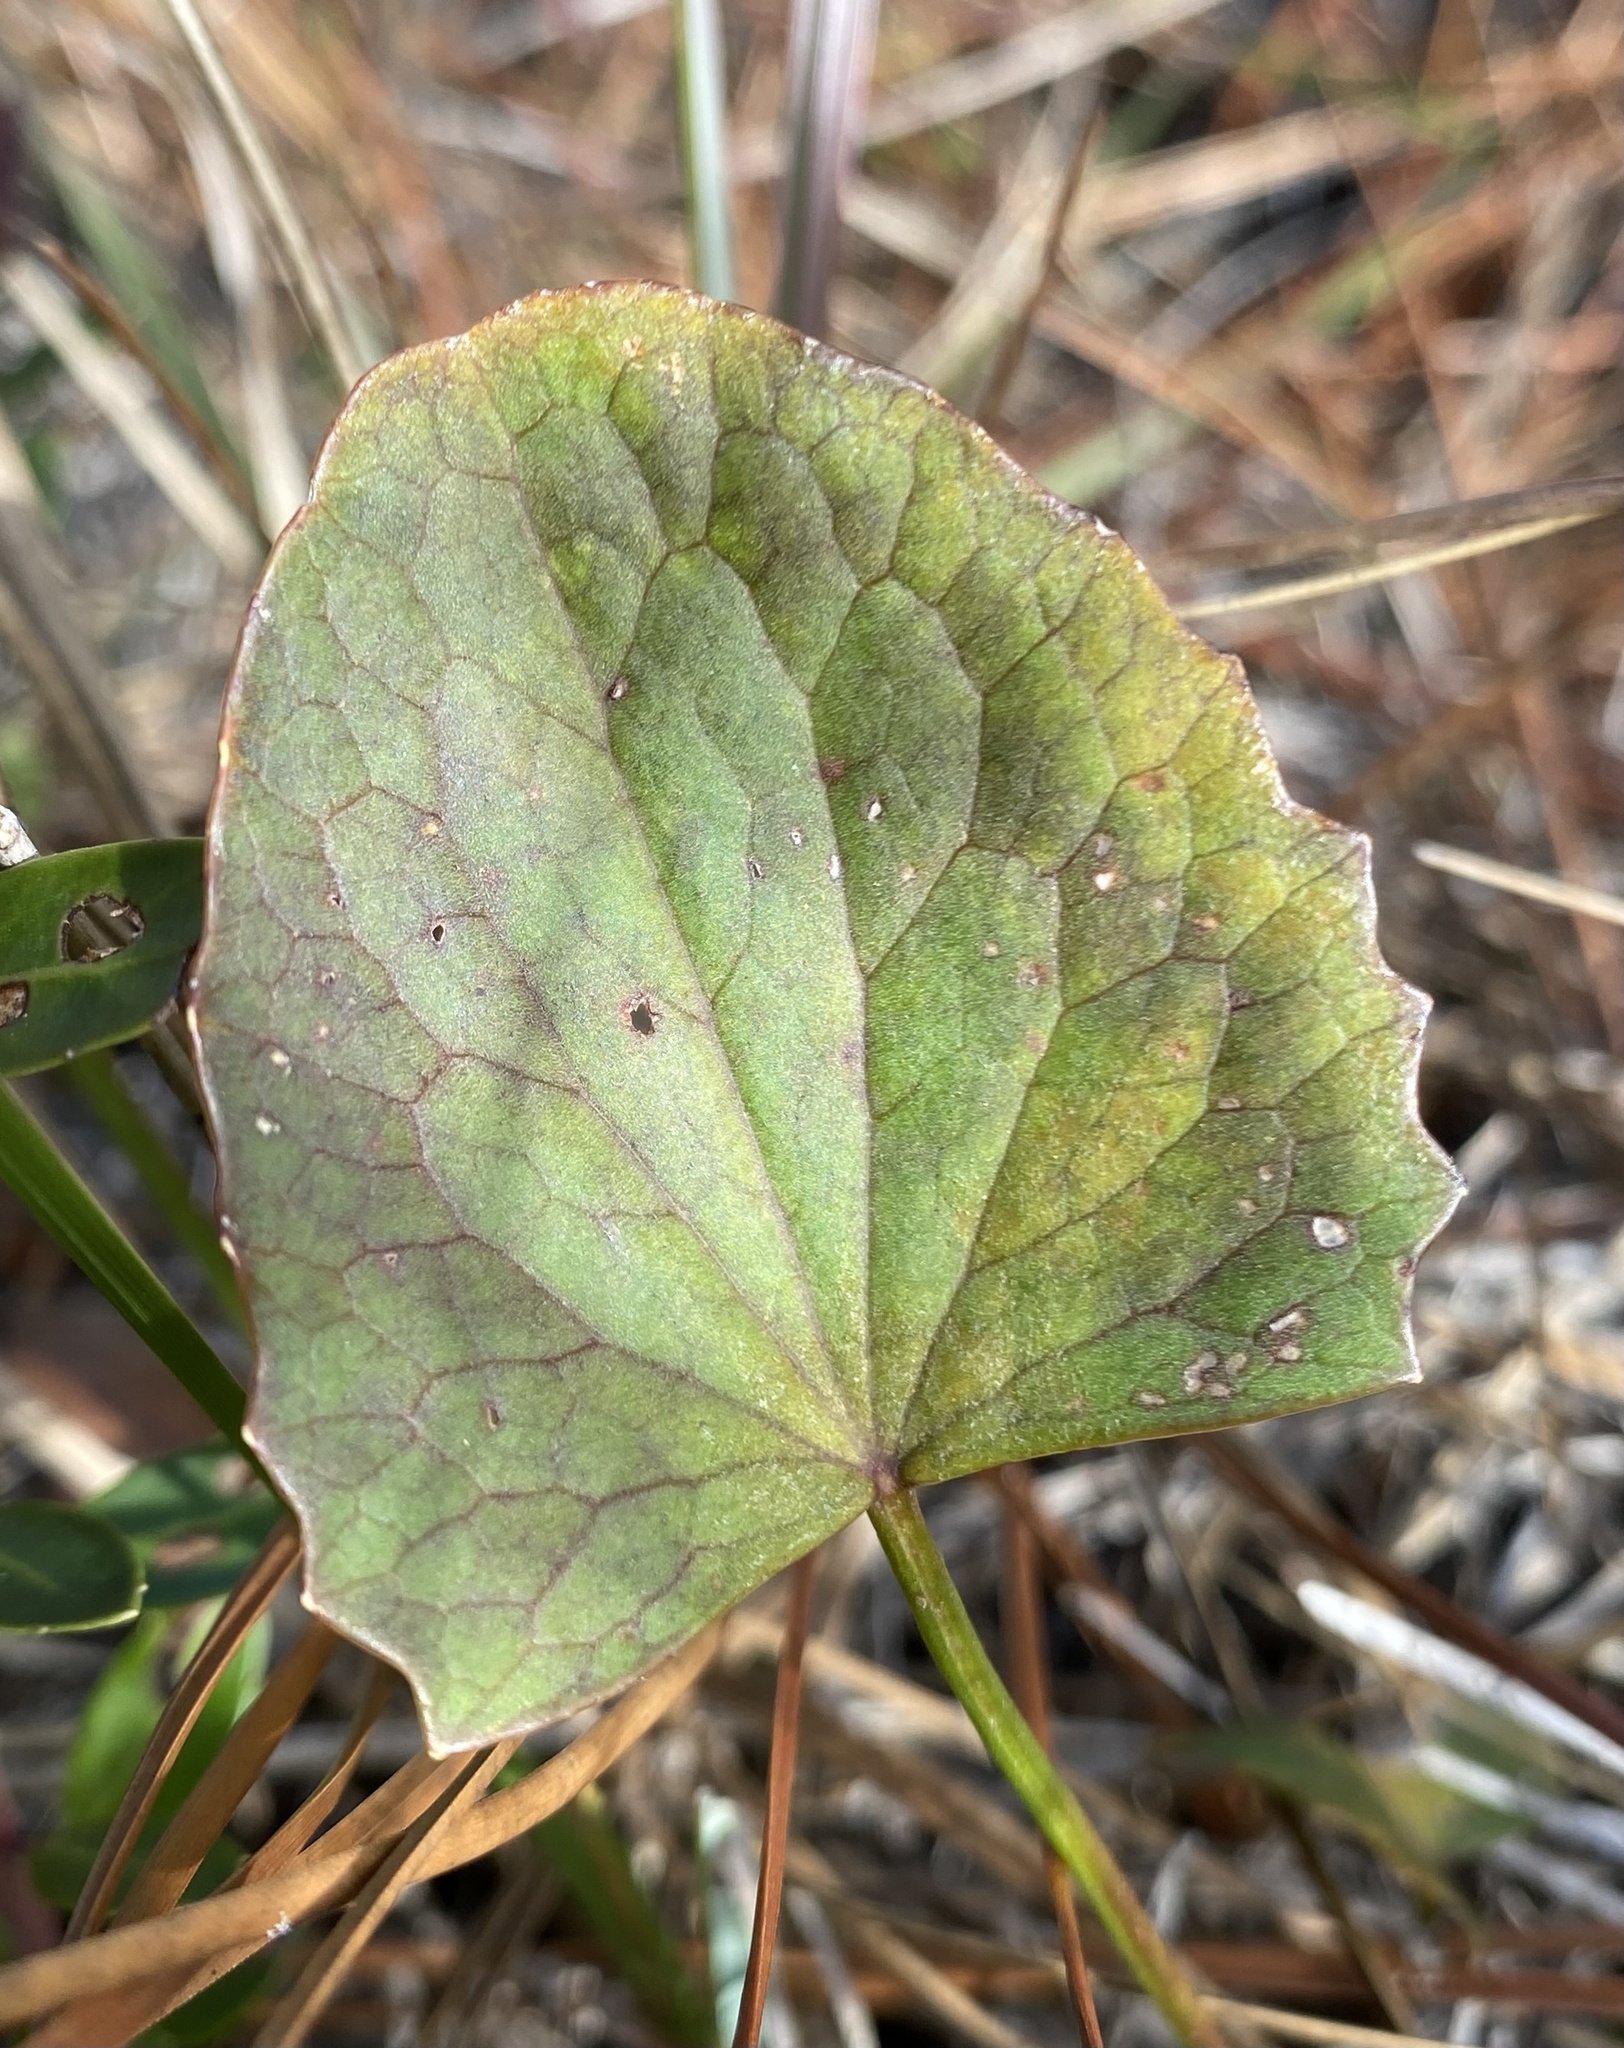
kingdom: Plantae
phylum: Tracheophyta
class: Magnoliopsida
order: Apiales
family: Apiaceae
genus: Centella
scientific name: Centella erecta
